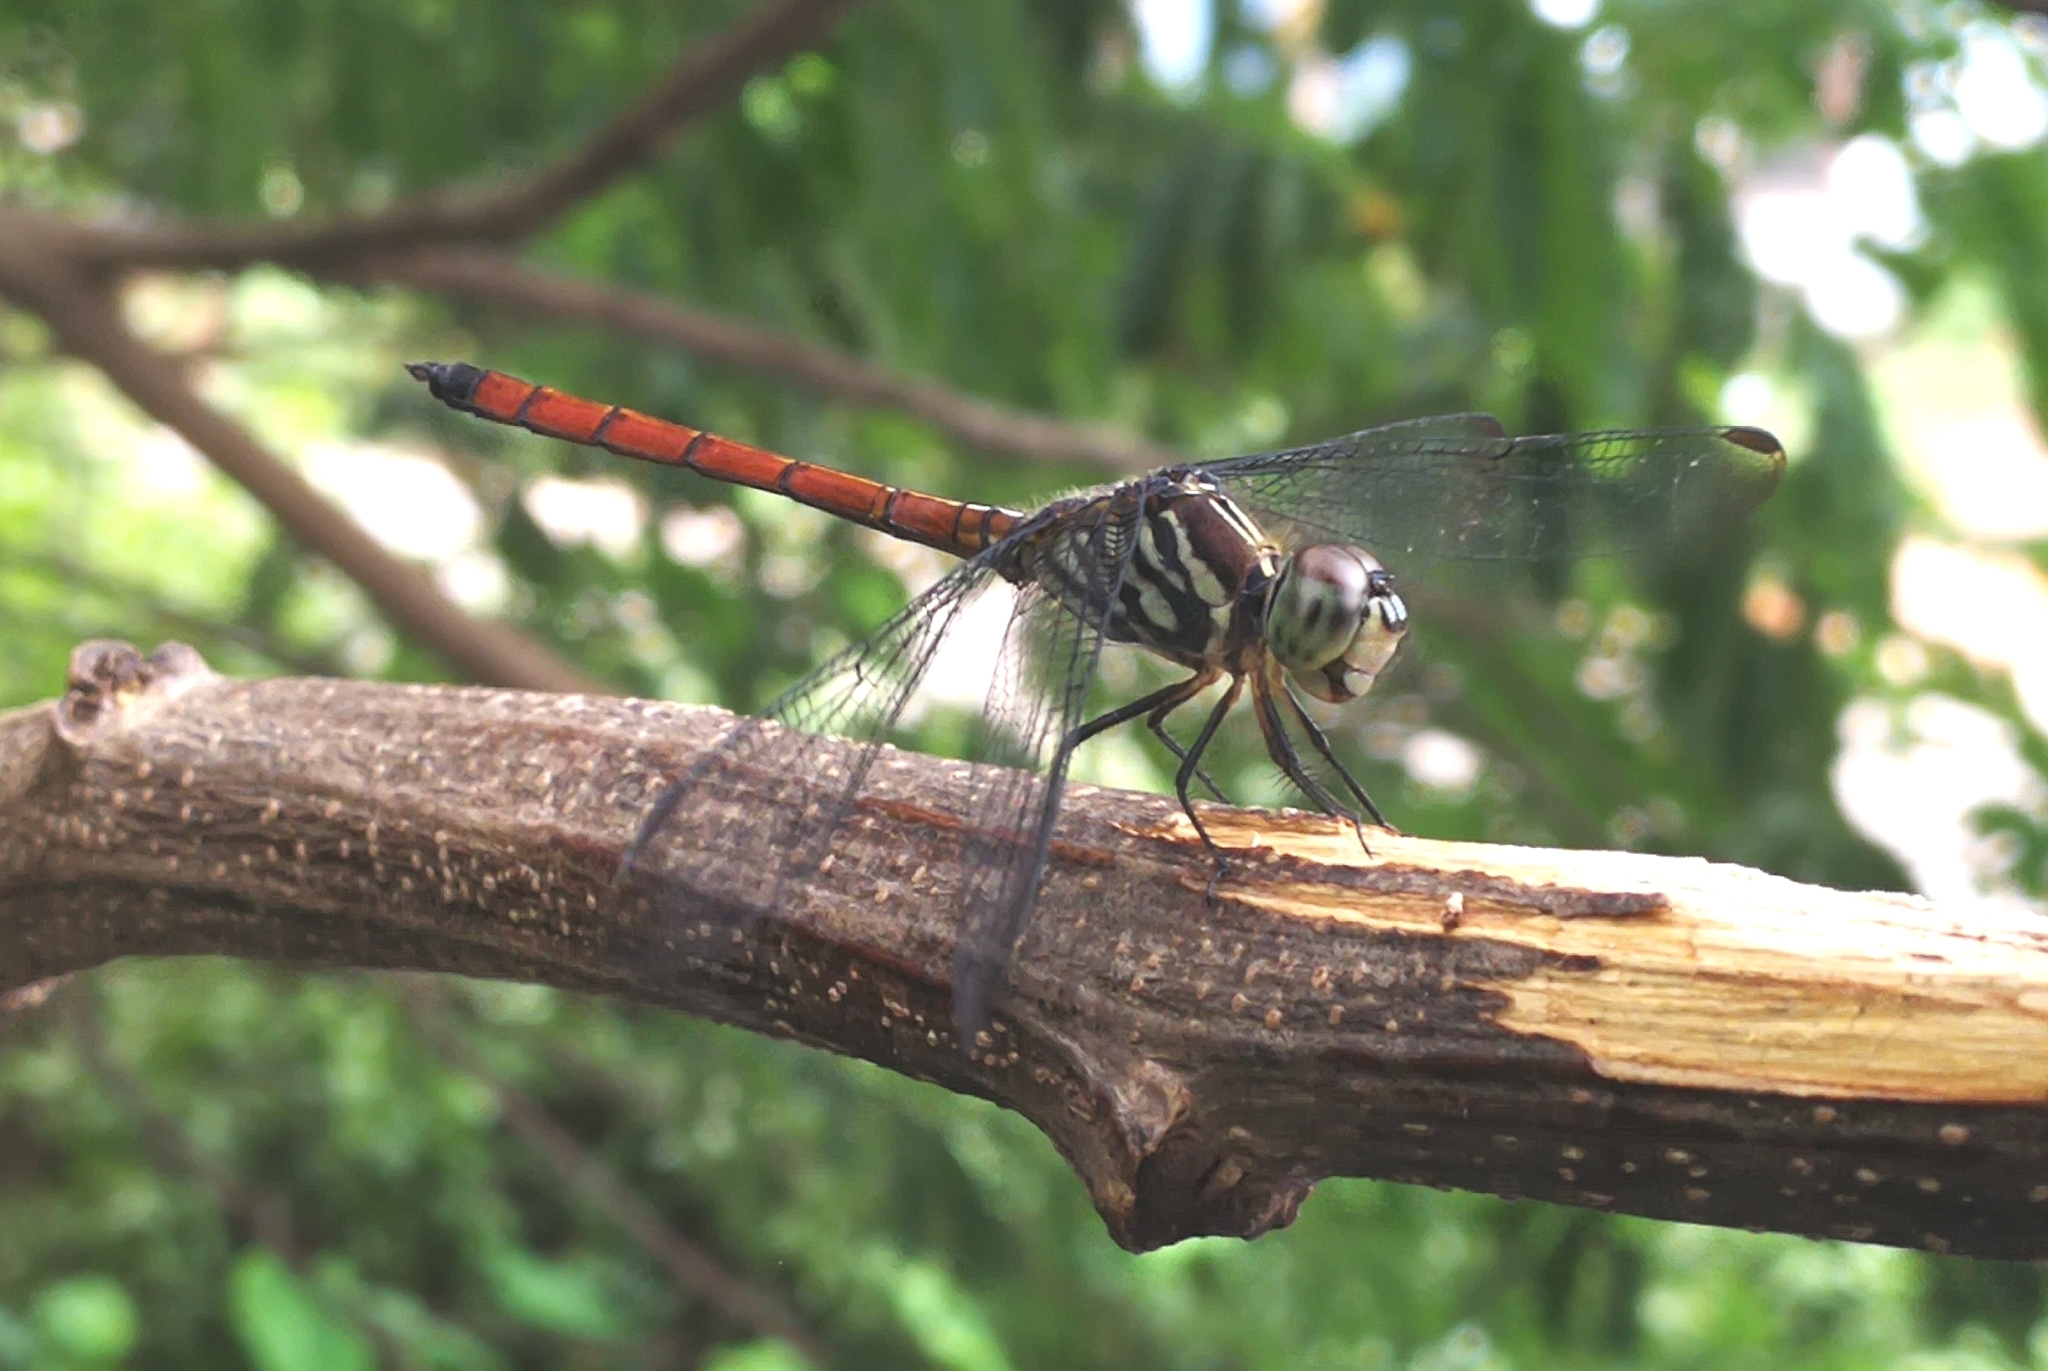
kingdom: Animalia
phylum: Arthropoda
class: Insecta
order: Odonata
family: Libellulidae
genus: Lathrecista
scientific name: Lathrecista asiatica
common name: Scarlet grenadier
